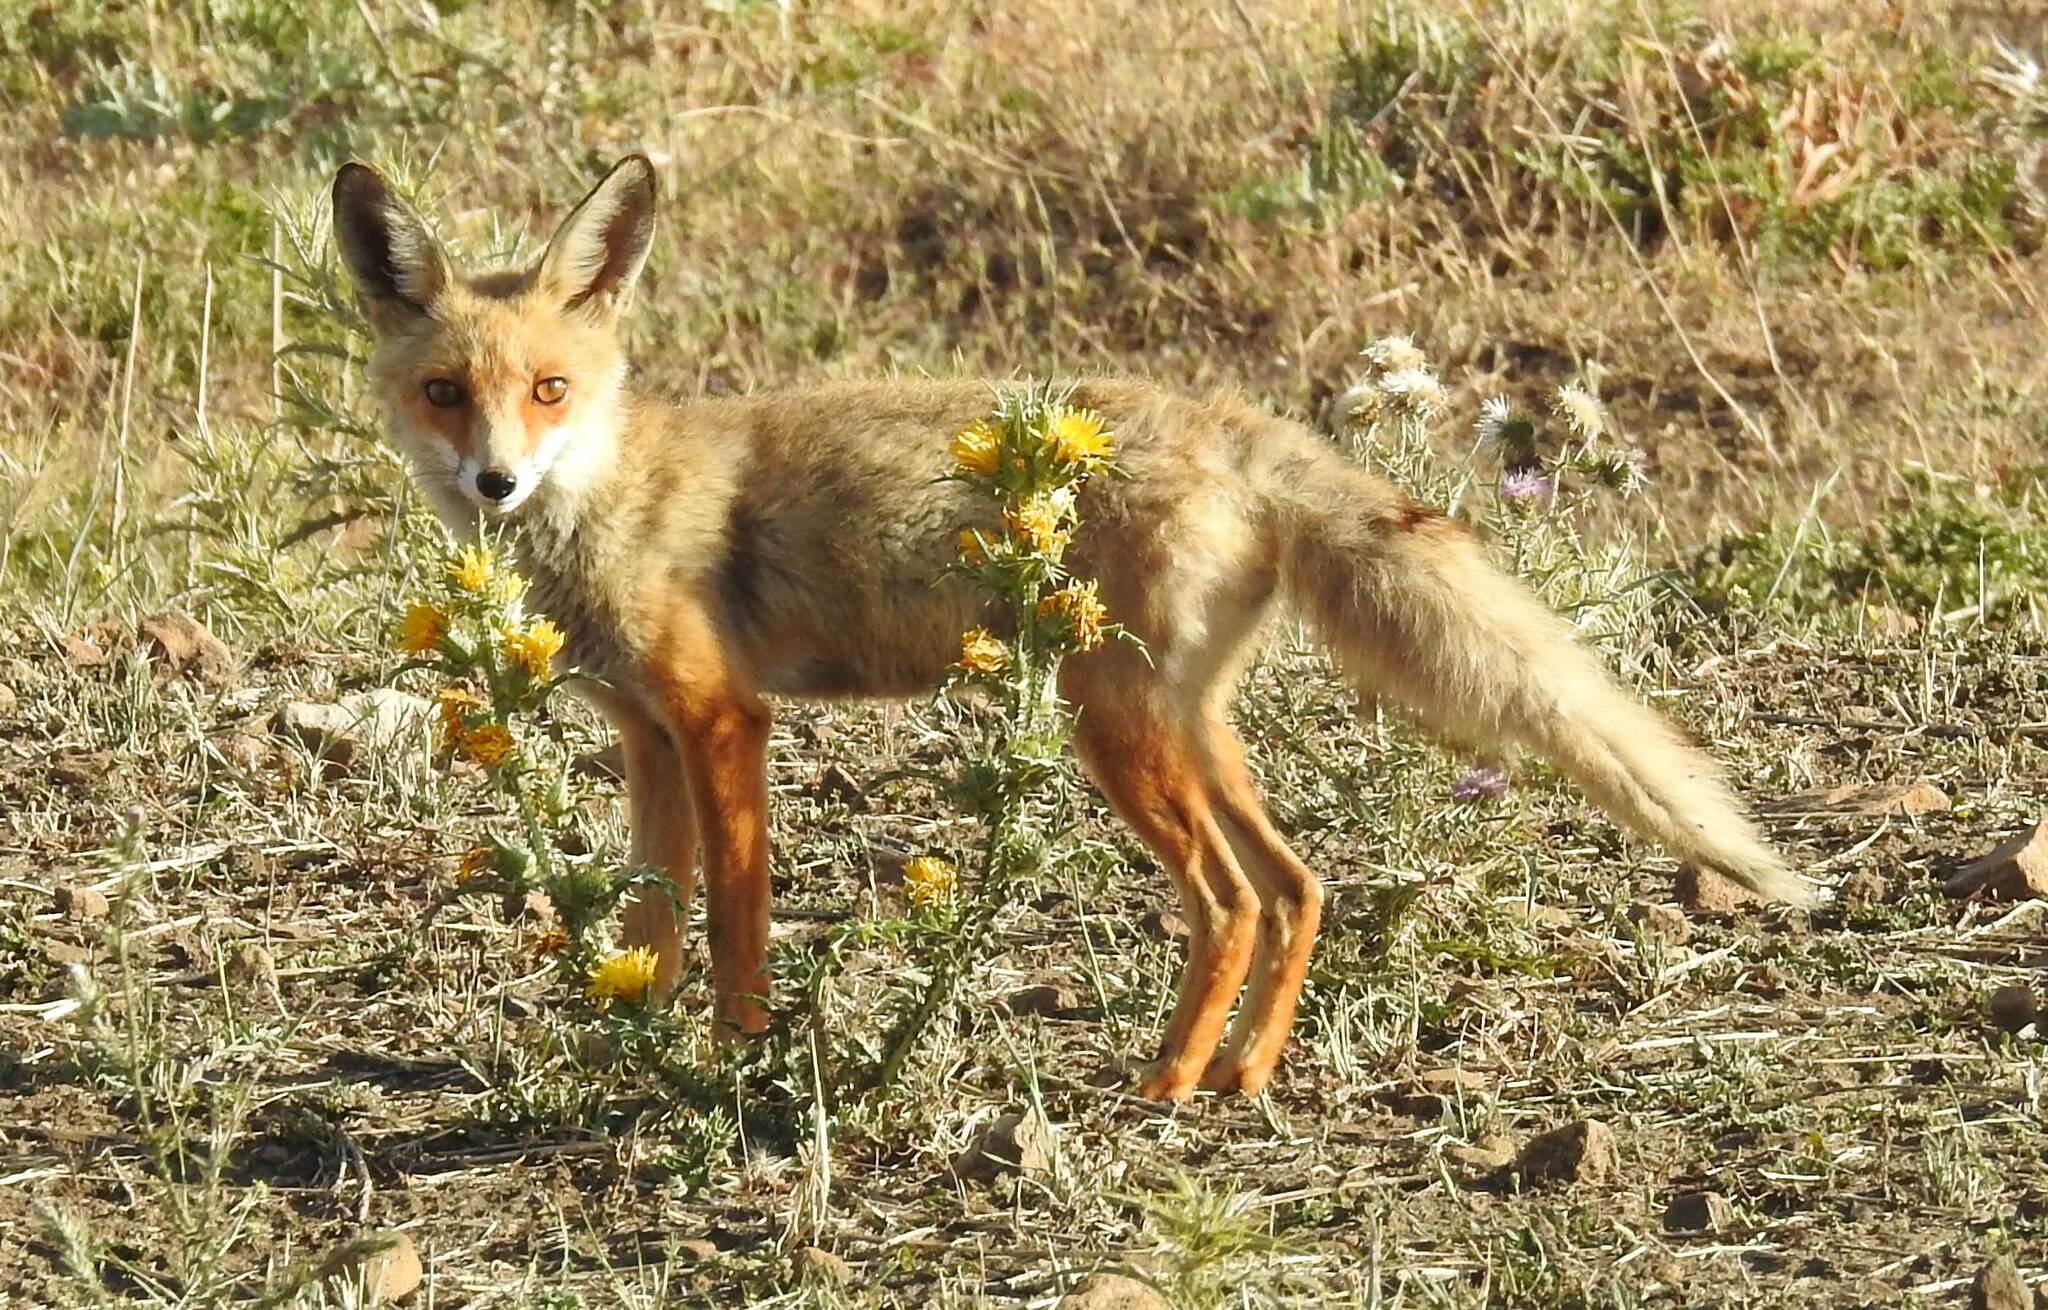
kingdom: Animalia
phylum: Chordata
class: Mammalia
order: Carnivora
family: Canidae
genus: Vulpes
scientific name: Vulpes vulpes
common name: Red fox
